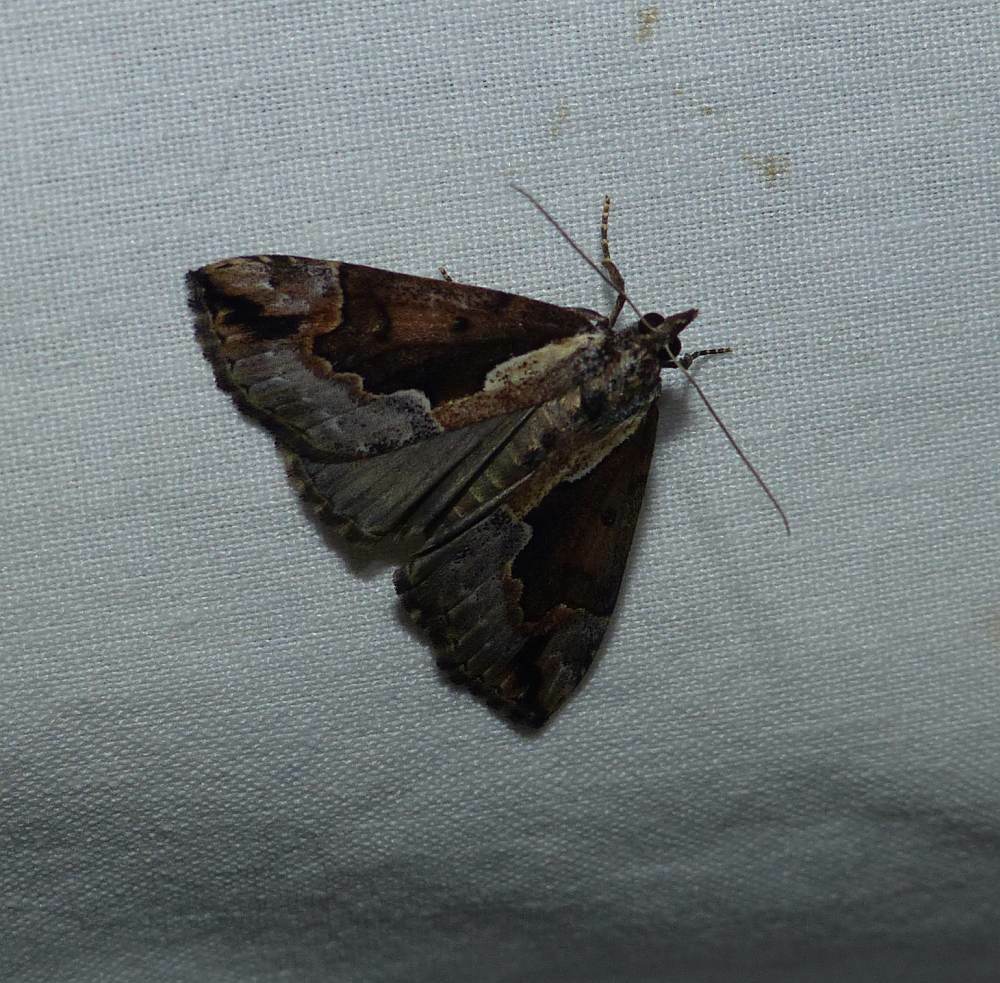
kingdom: Animalia
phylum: Arthropoda
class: Insecta
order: Lepidoptera
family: Erebidae
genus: Hypena
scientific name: Hypena baltimoralis
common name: Baltimore snout
